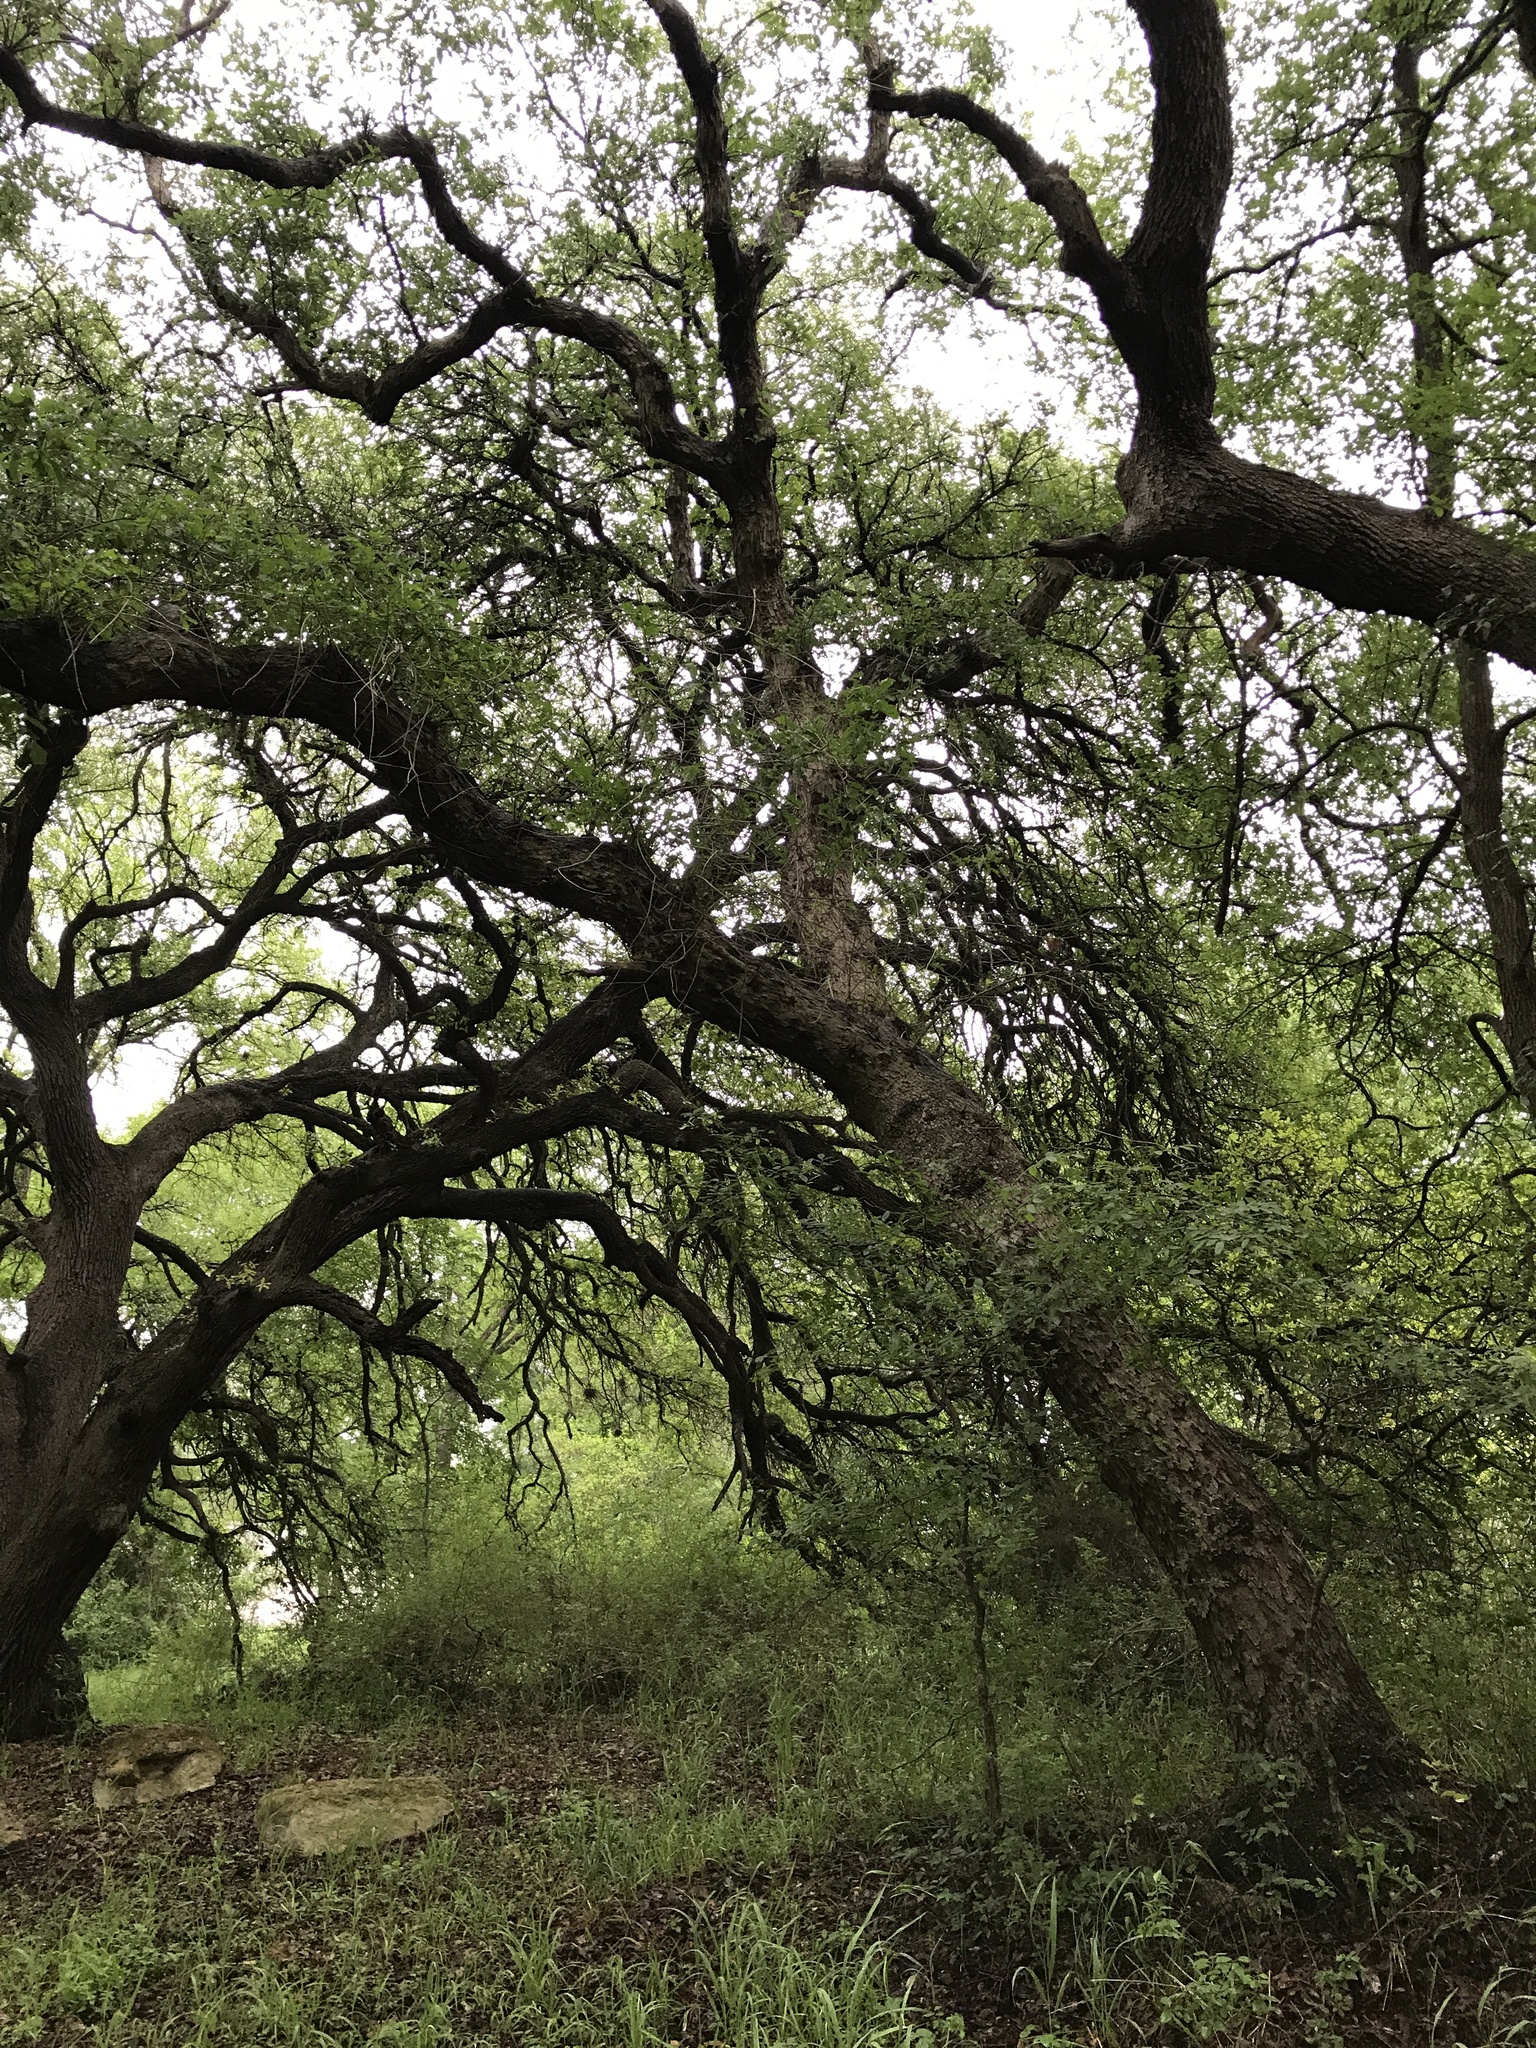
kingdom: Plantae
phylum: Tracheophyta
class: Magnoliopsida
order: Fagales
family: Fagaceae
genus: Quercus
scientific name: Quercus sinuata
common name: Durand oak
